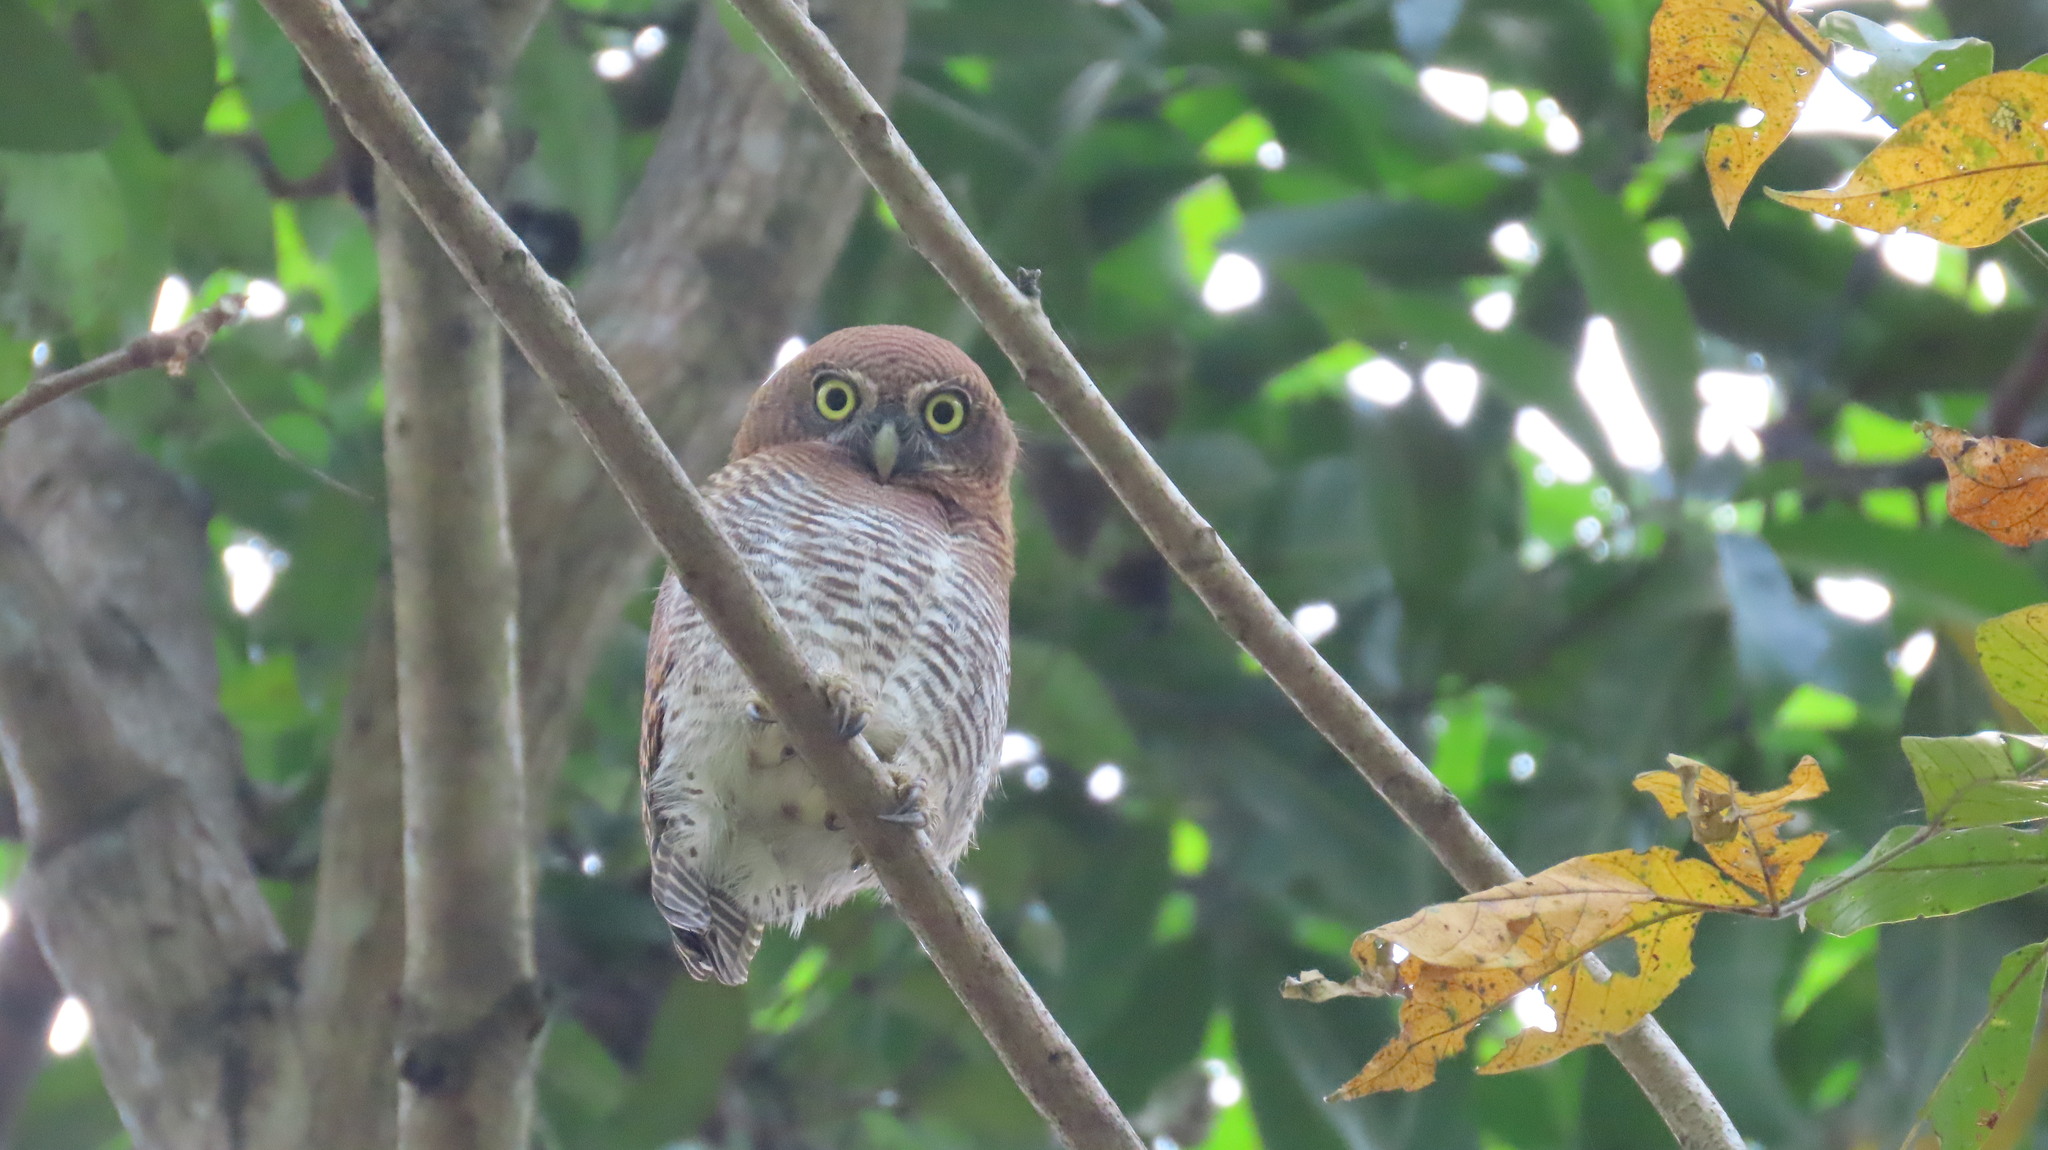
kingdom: Animalia
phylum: Chordata
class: Aves
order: Strigiformes
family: Strigidae
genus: Glaucidium
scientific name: Glaucidium radiatum
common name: Jungle owlet
